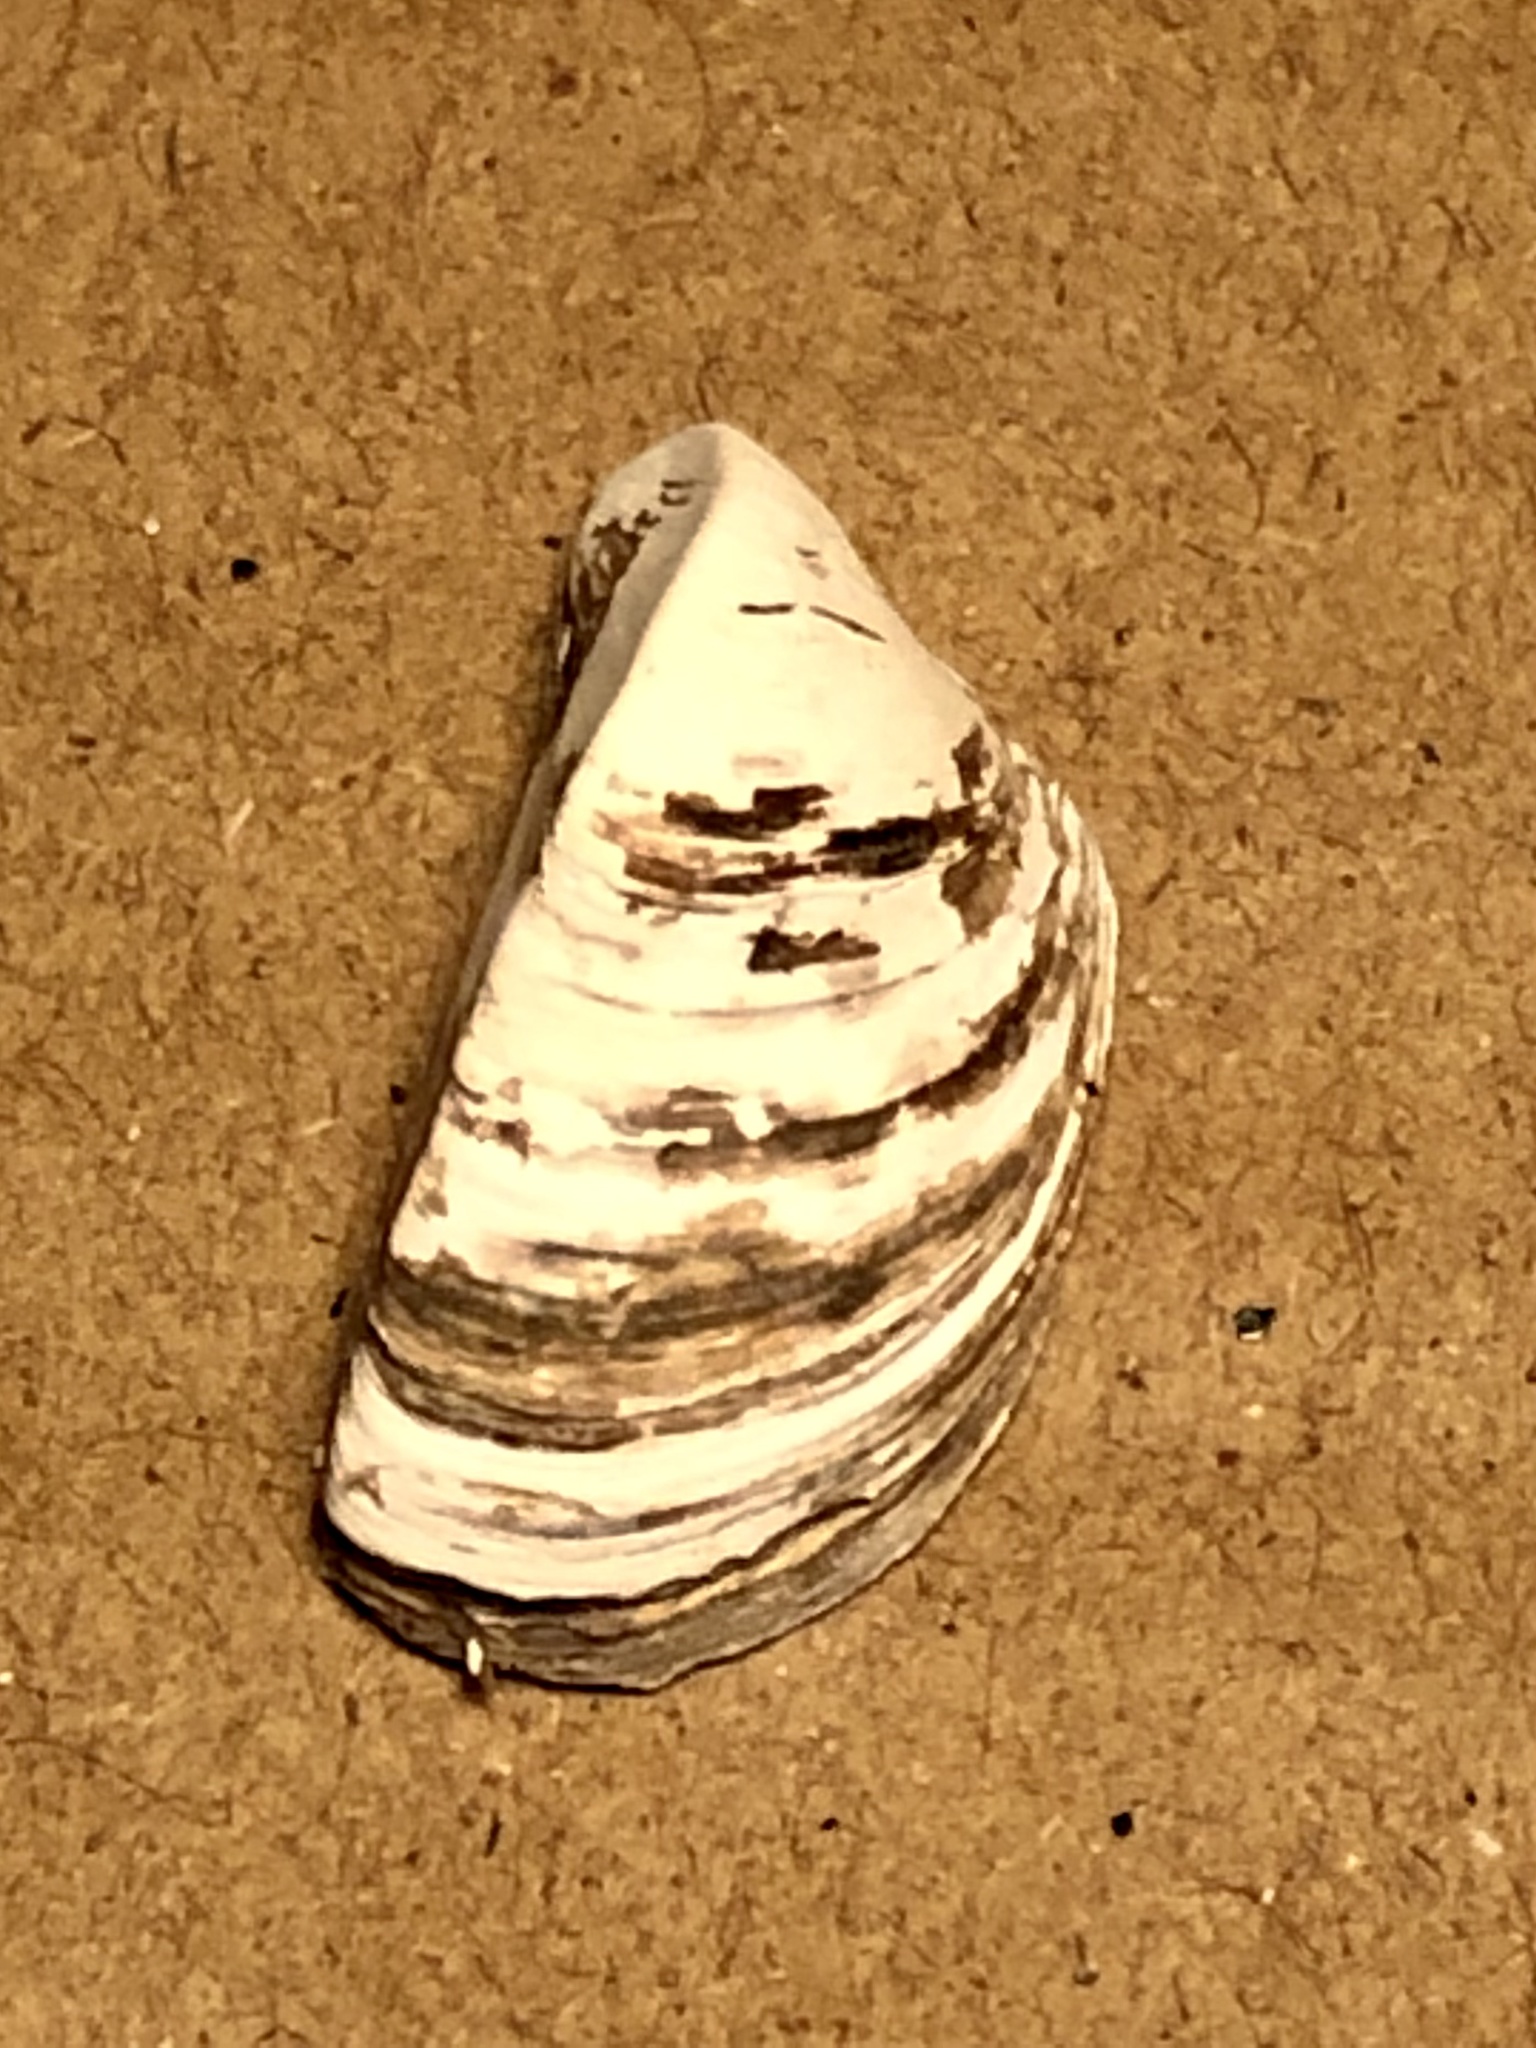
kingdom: Animalia
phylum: Mollusca
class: Bivalvia
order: Myida
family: Dreissenidae
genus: Dreissena
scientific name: Dreissena polymorpha
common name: Zebra mussel
